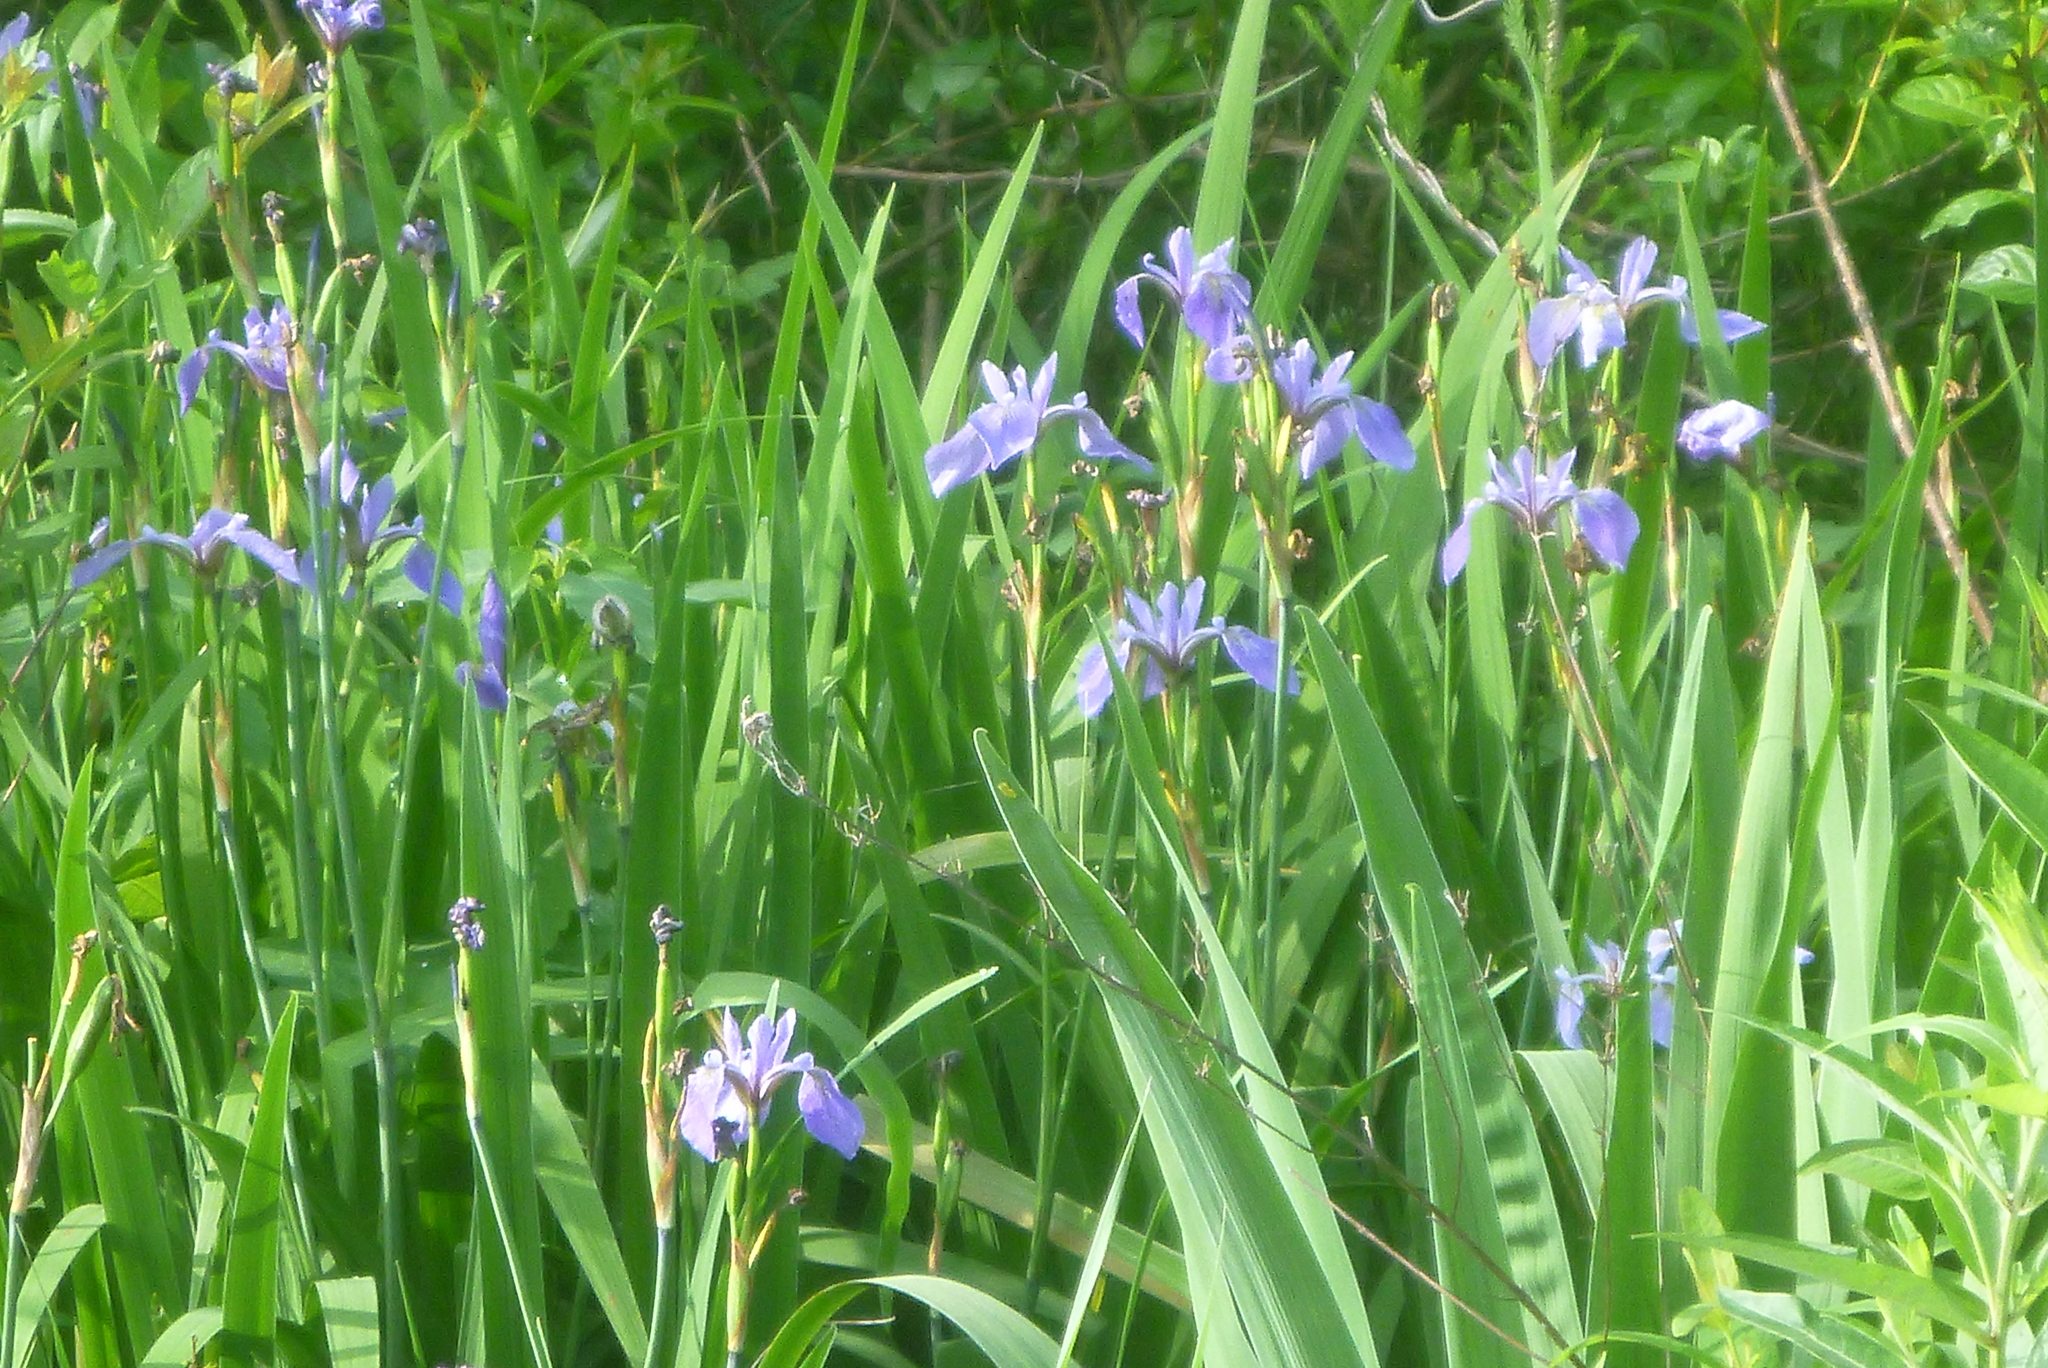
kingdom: Plantae
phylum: Tracheophyta
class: Liliopsida
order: Asparagales
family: Iridaceae
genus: Iris
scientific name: Iris versicolor
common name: Purple iris
